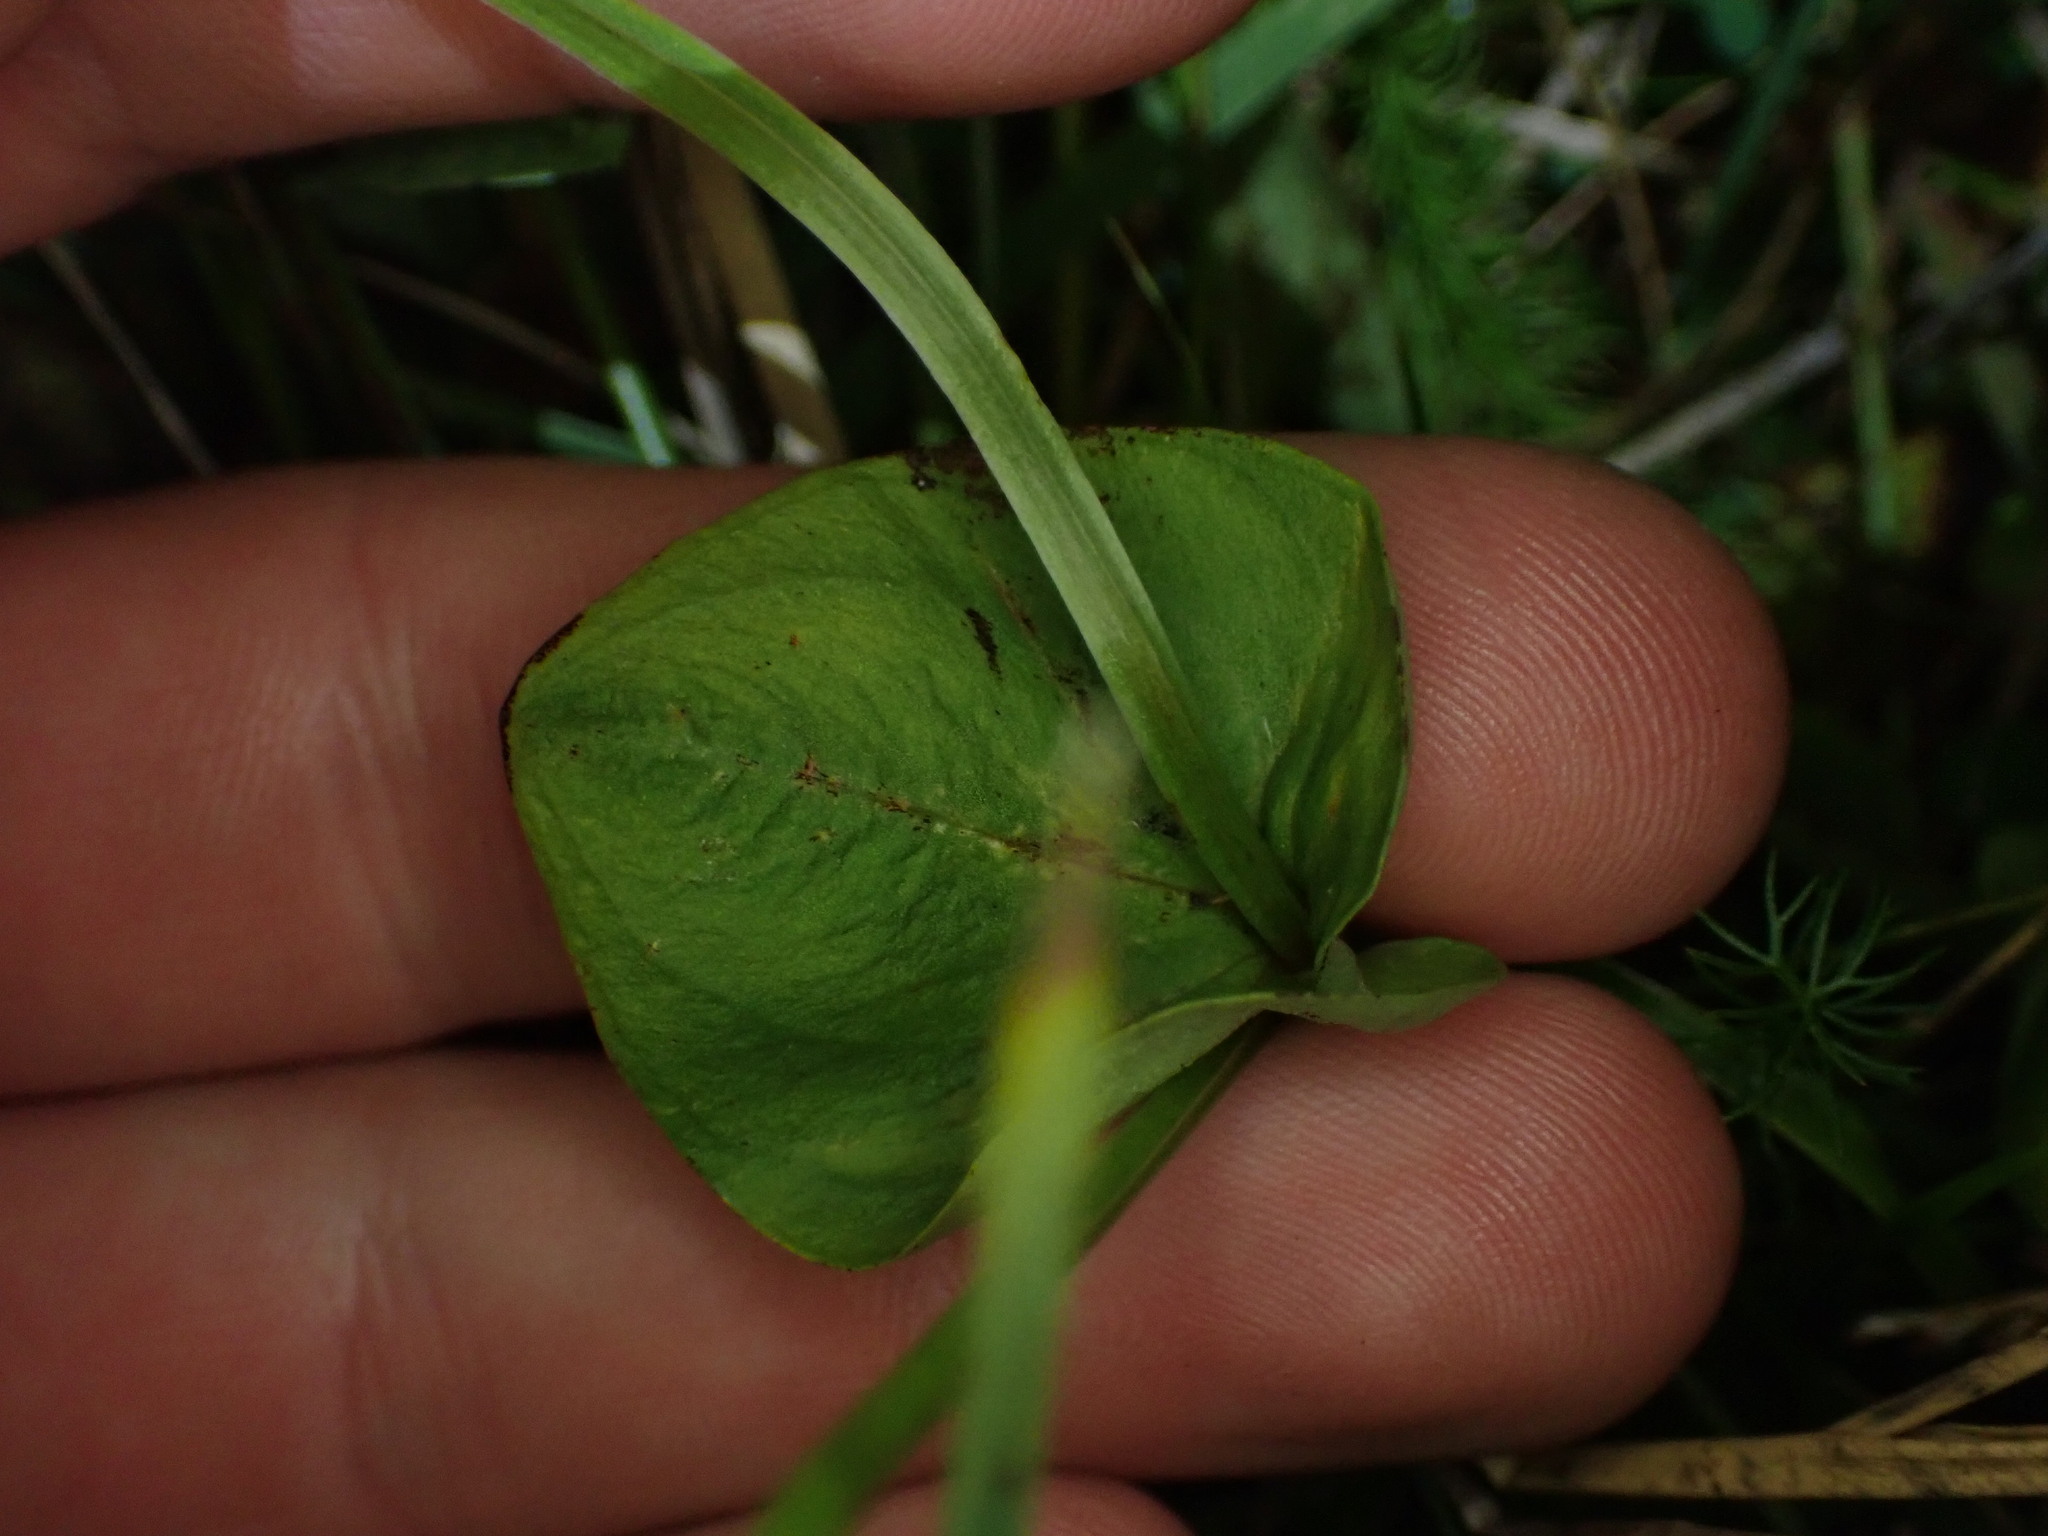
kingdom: Plantae
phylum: Tracheophyta
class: Magnoliopsida
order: Celastrales
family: Parnassiaceae
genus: Parnassia
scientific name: Parnassia palustris
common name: Grass-of-parnassus
